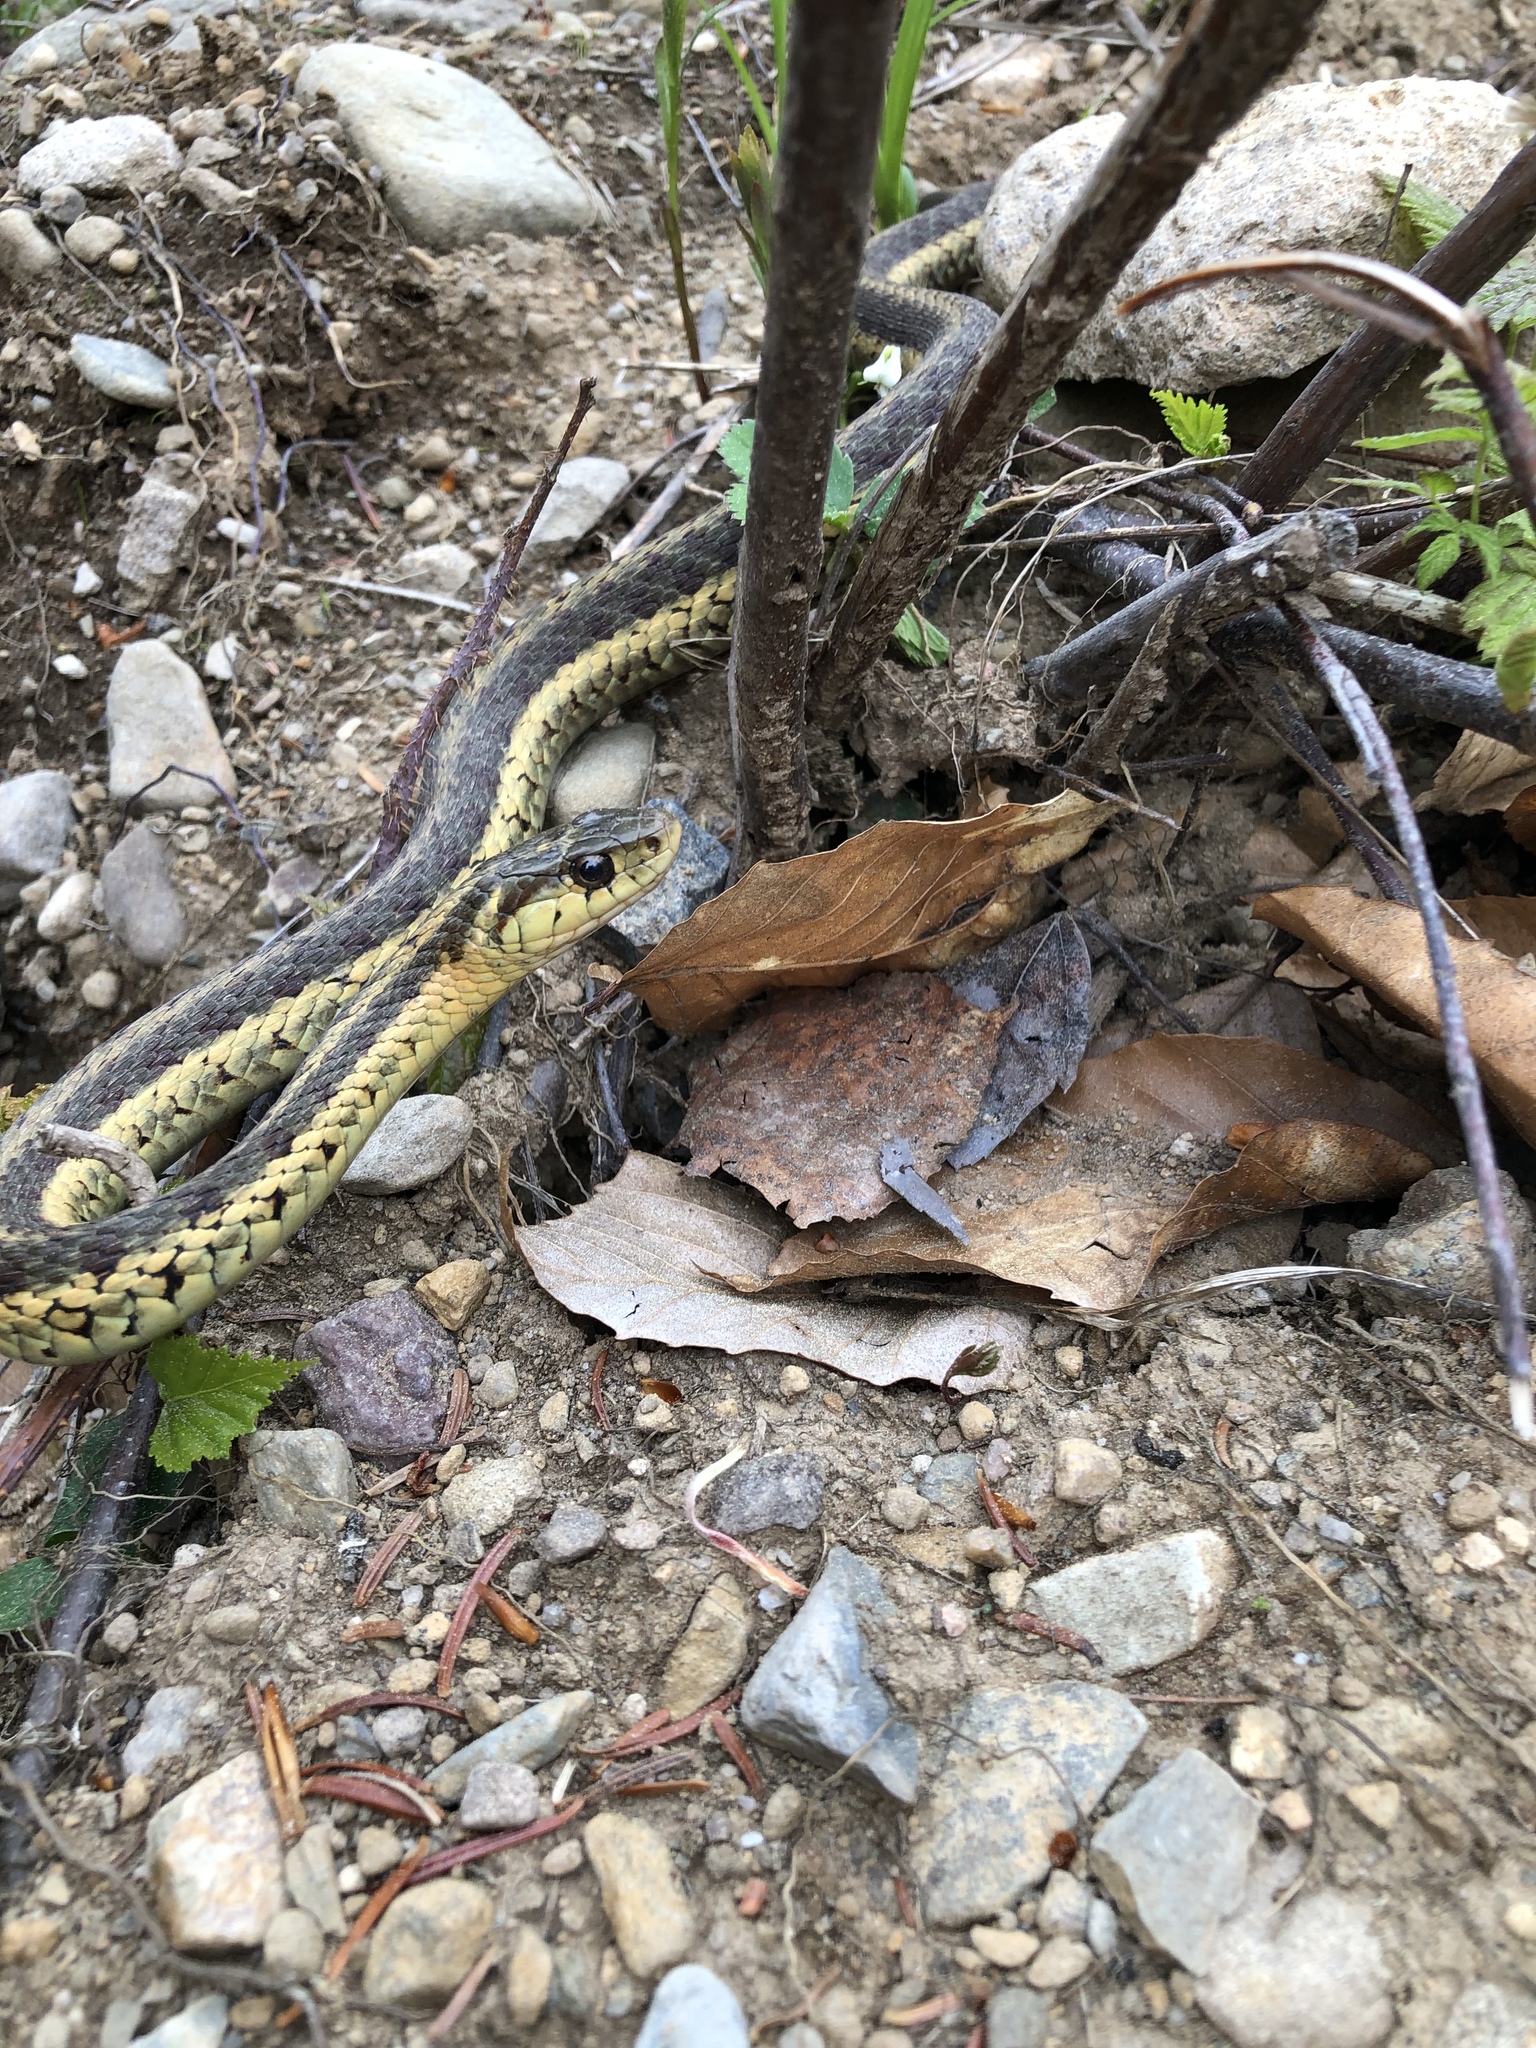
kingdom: Animalia
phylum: Chordata
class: Squamata
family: Colubridae
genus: Thamnophis
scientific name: Thamnophis sirtalis
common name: Common garter snake
